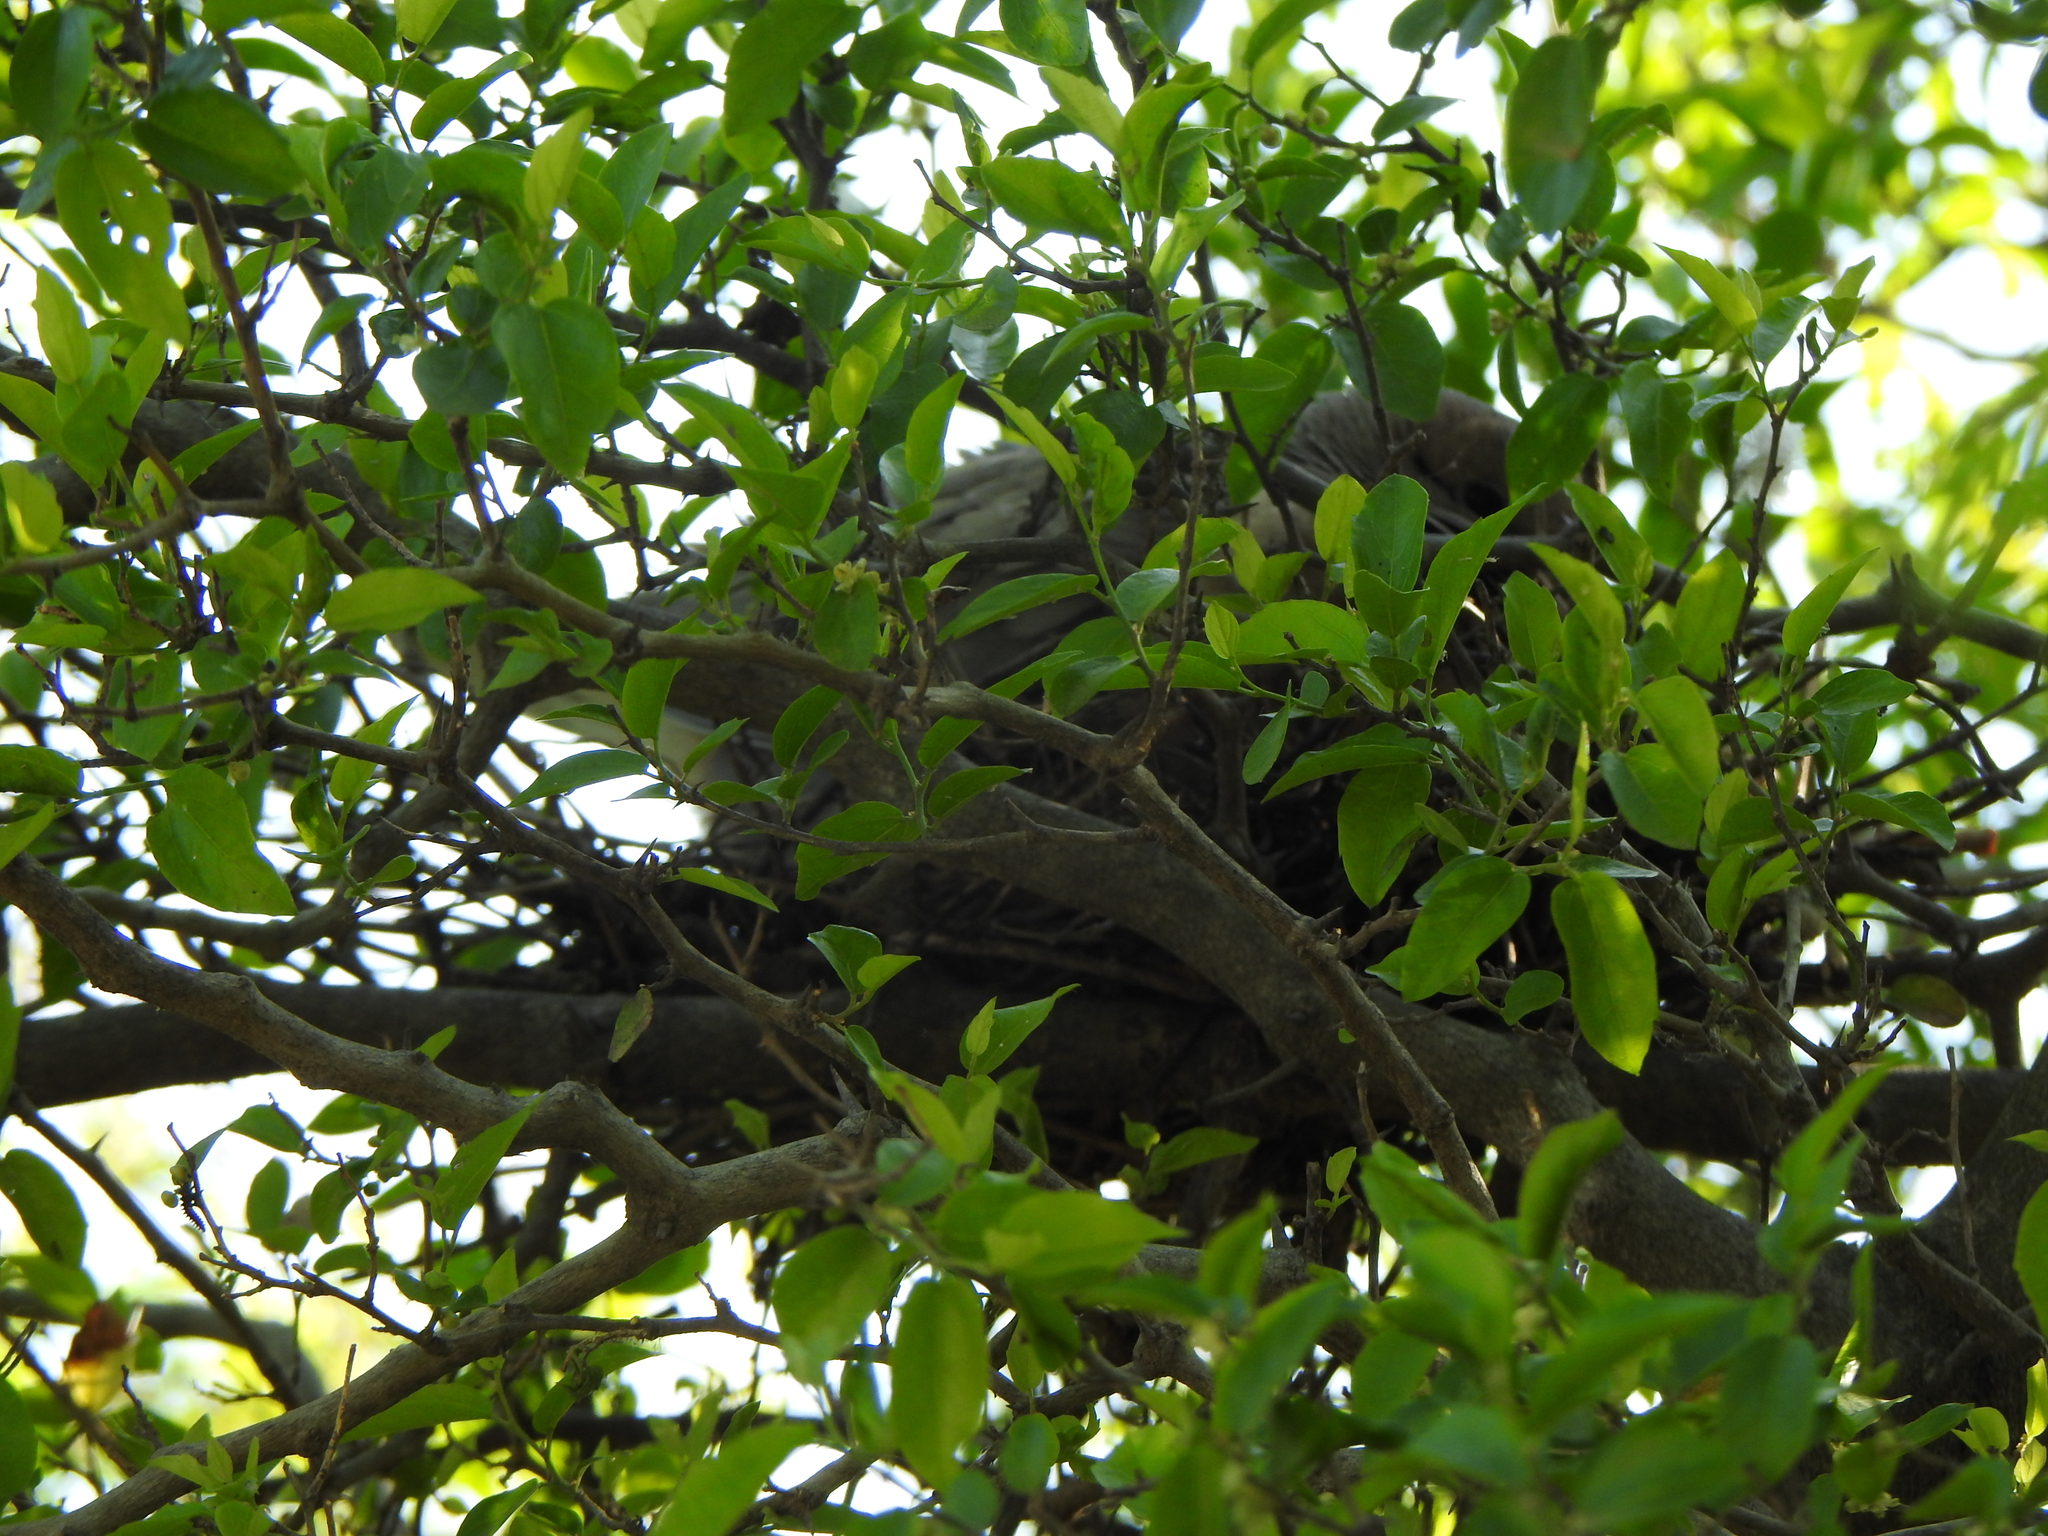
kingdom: Plantae
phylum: Tracheophyta
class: Magnoliopsida
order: Rosales
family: Cannabaceae
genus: Celtis
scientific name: Celtis tala
